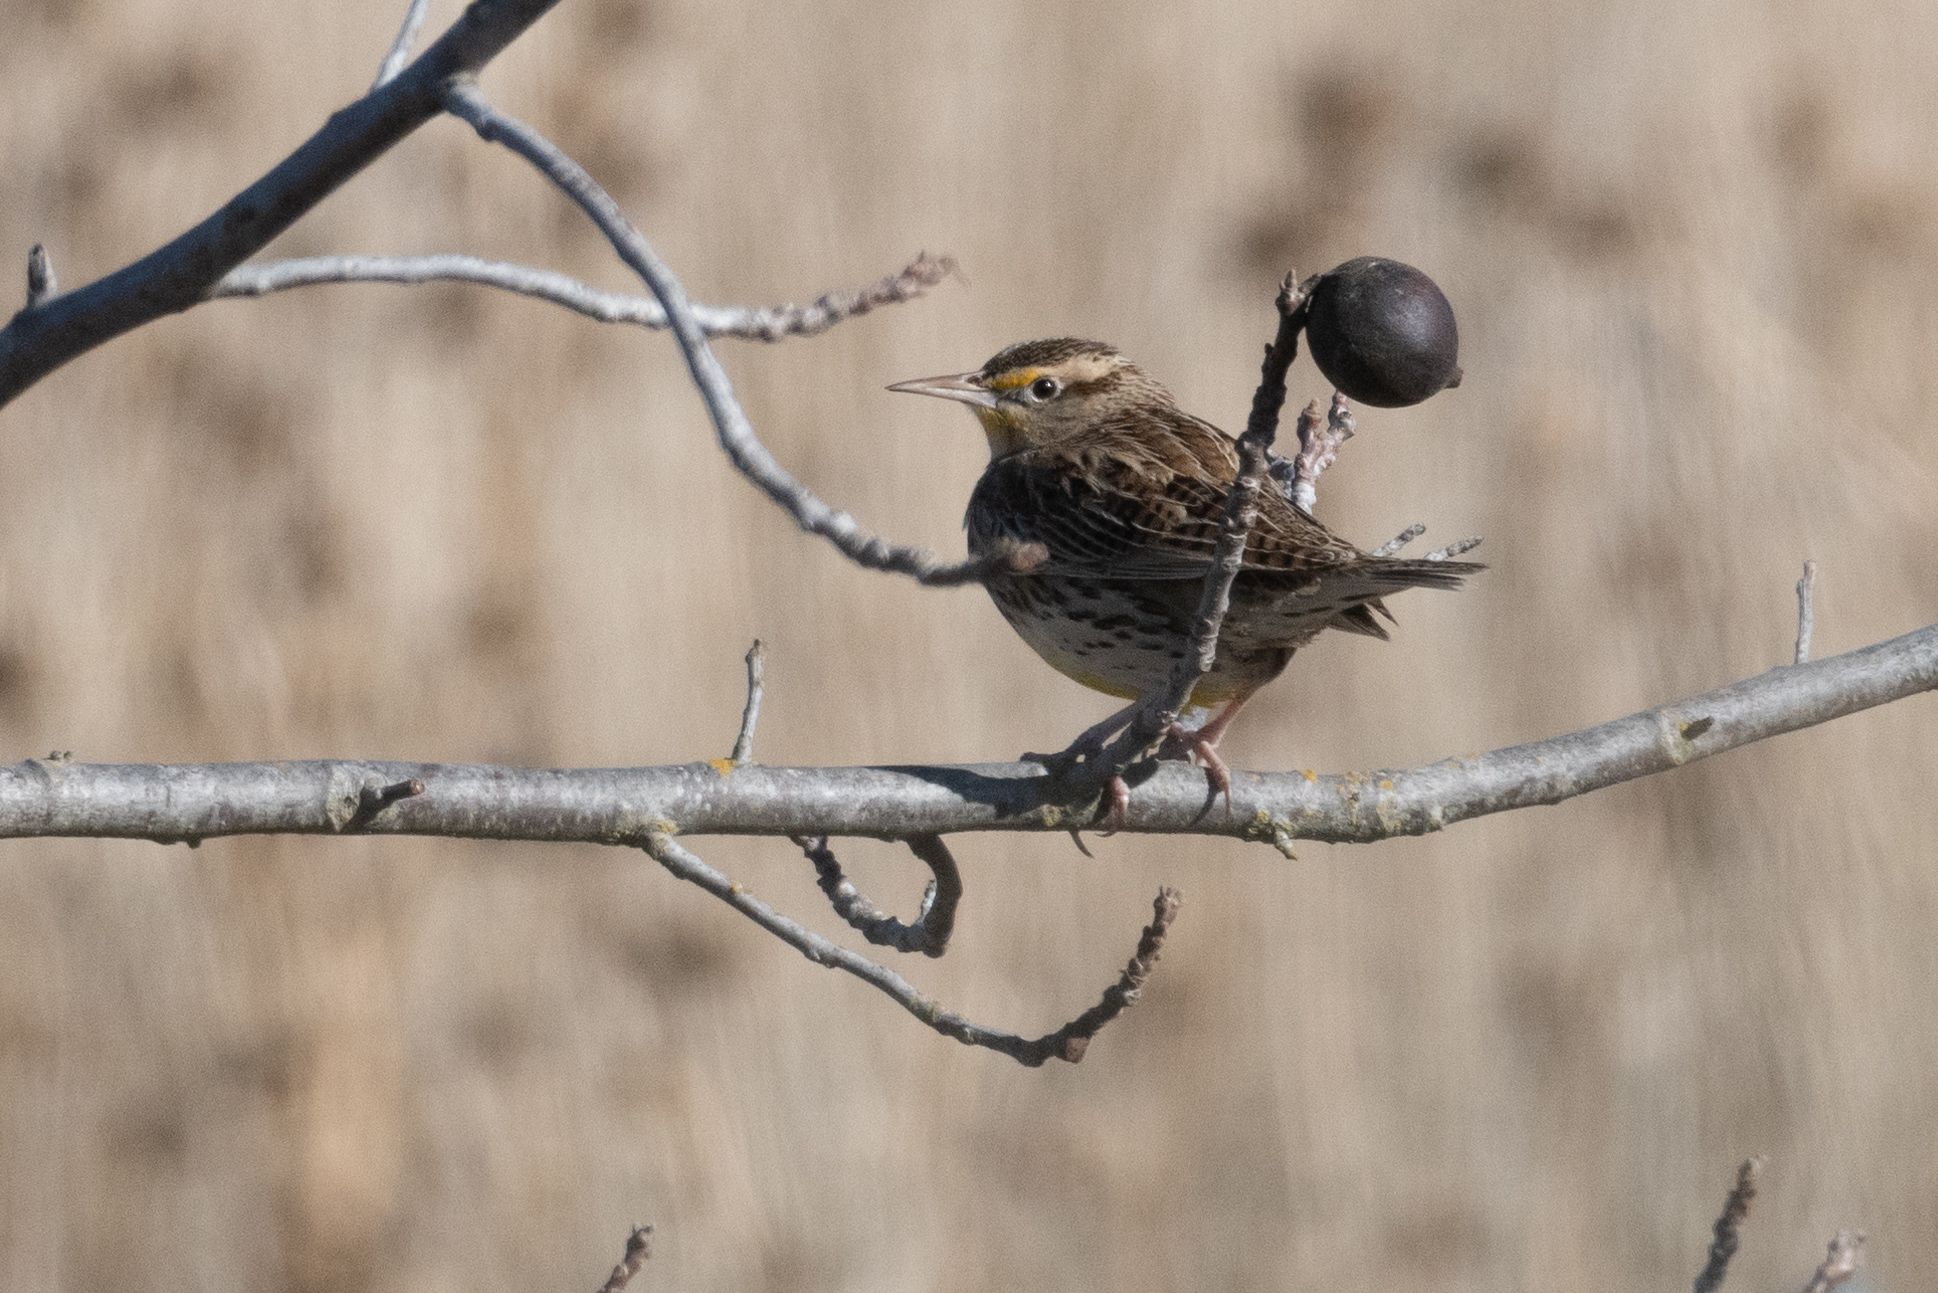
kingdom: Animalia
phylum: Chordata
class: Aves
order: Passeriformes
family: Icteridae
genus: Sturnella
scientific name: Sturnella neglecta
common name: Western meadowlark
